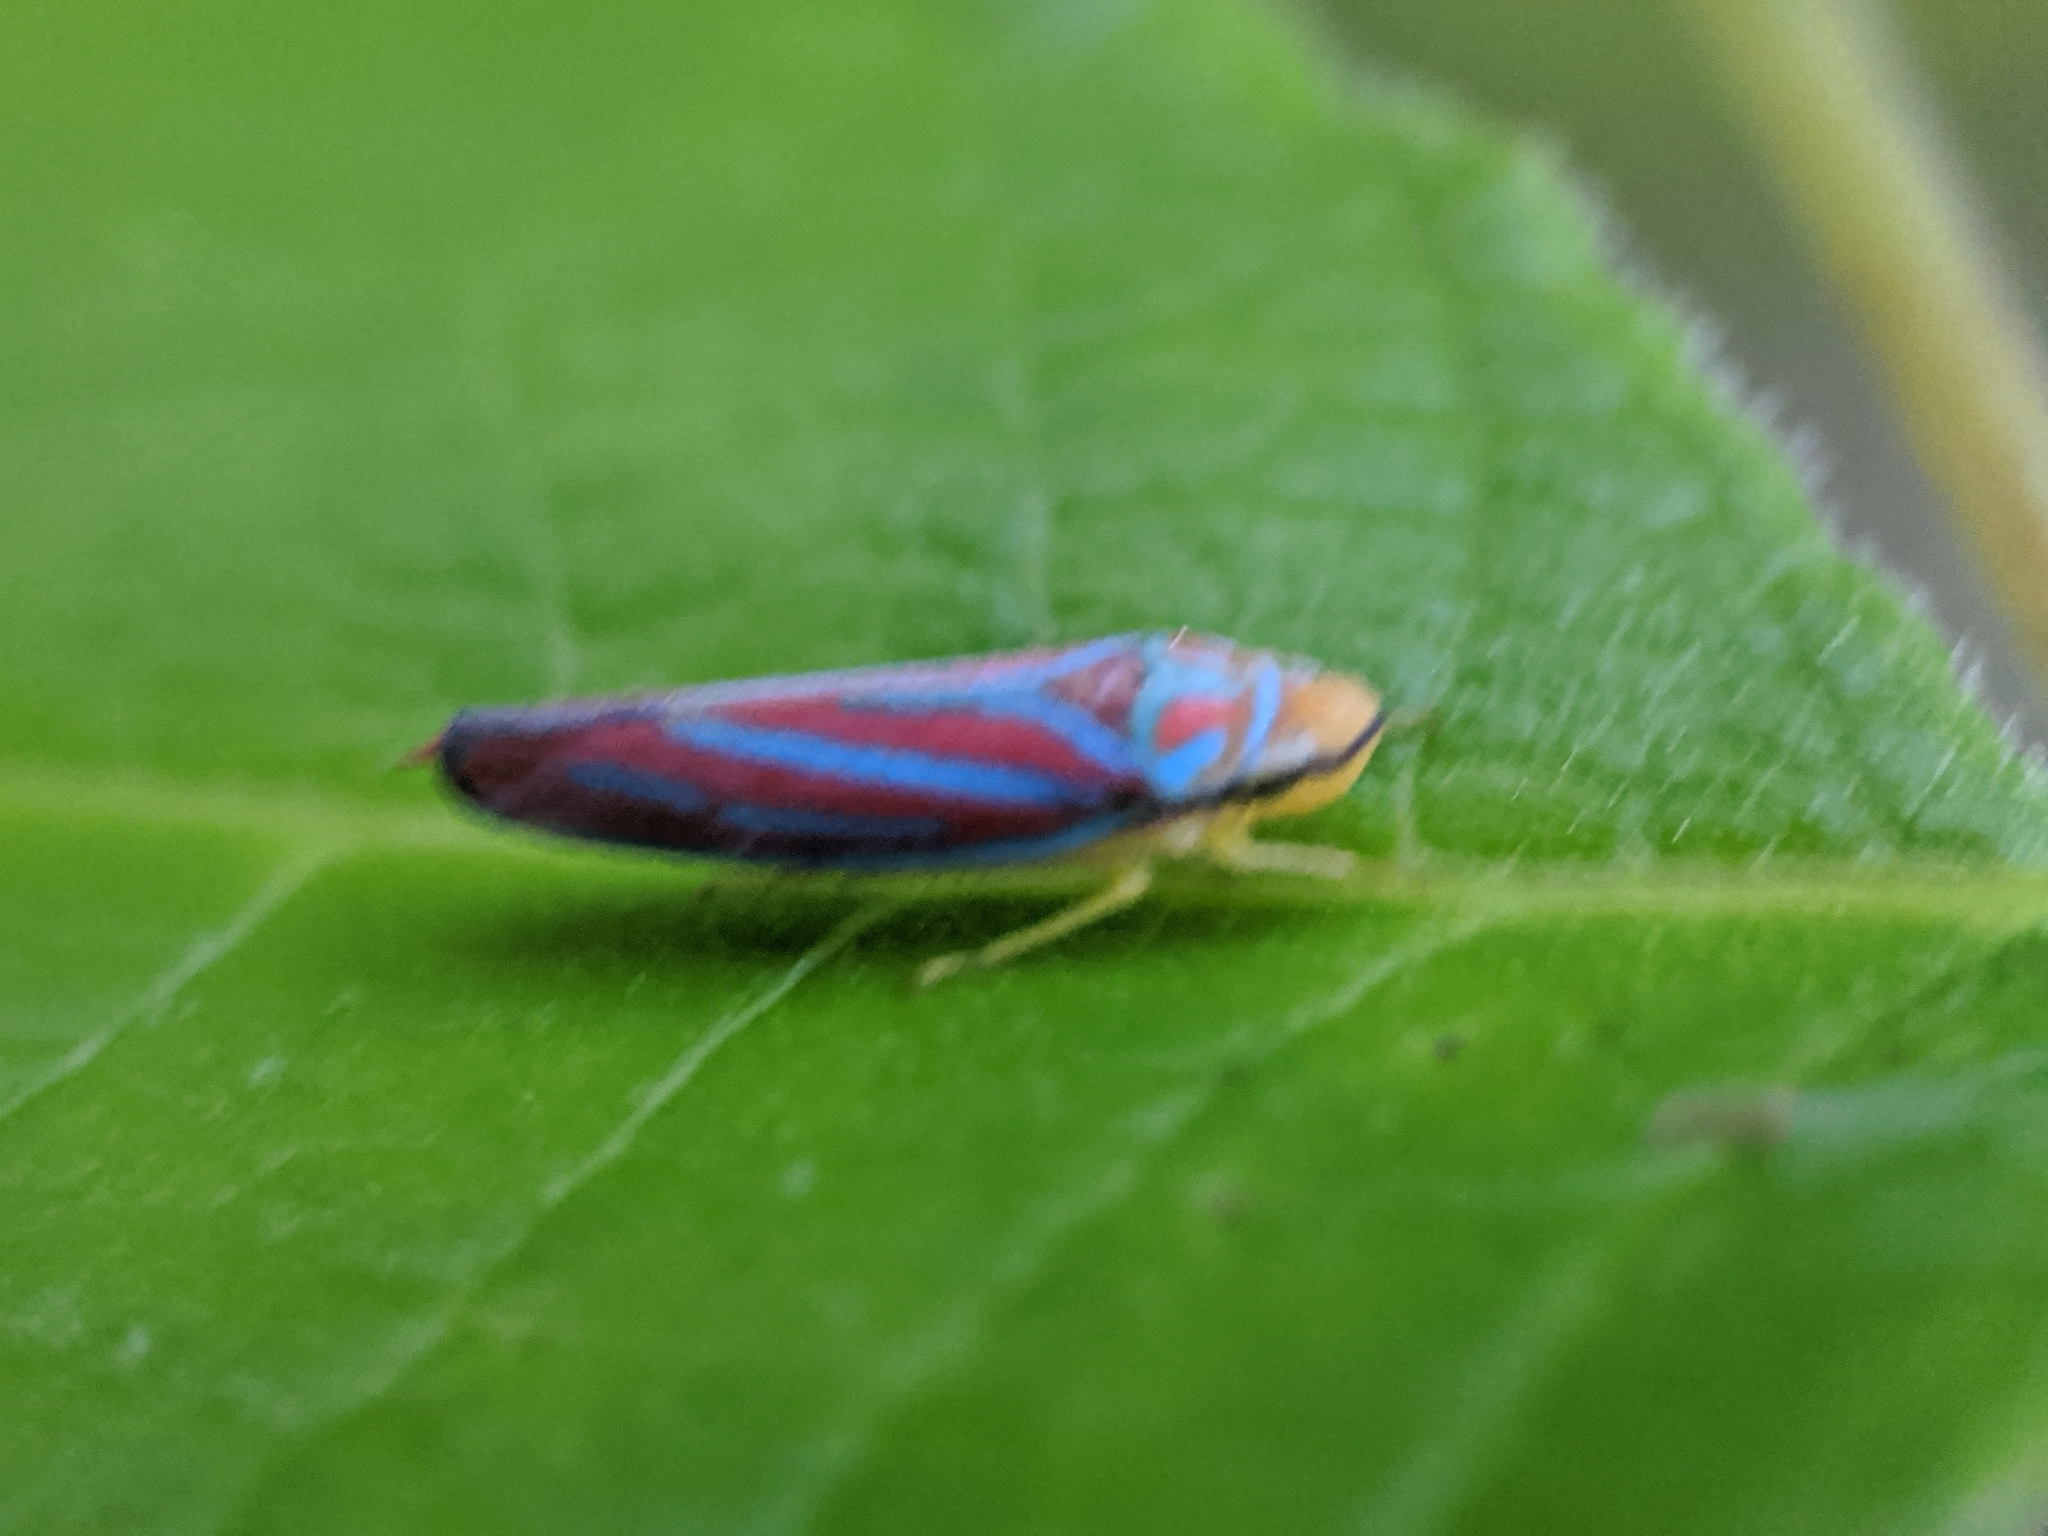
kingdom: Animalia
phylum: Arthropoda
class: Insecta
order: Hemiptera
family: Cicadellidae
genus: Graphocephala
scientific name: Graphocephala coccinea
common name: Candy-striped leafhopper
